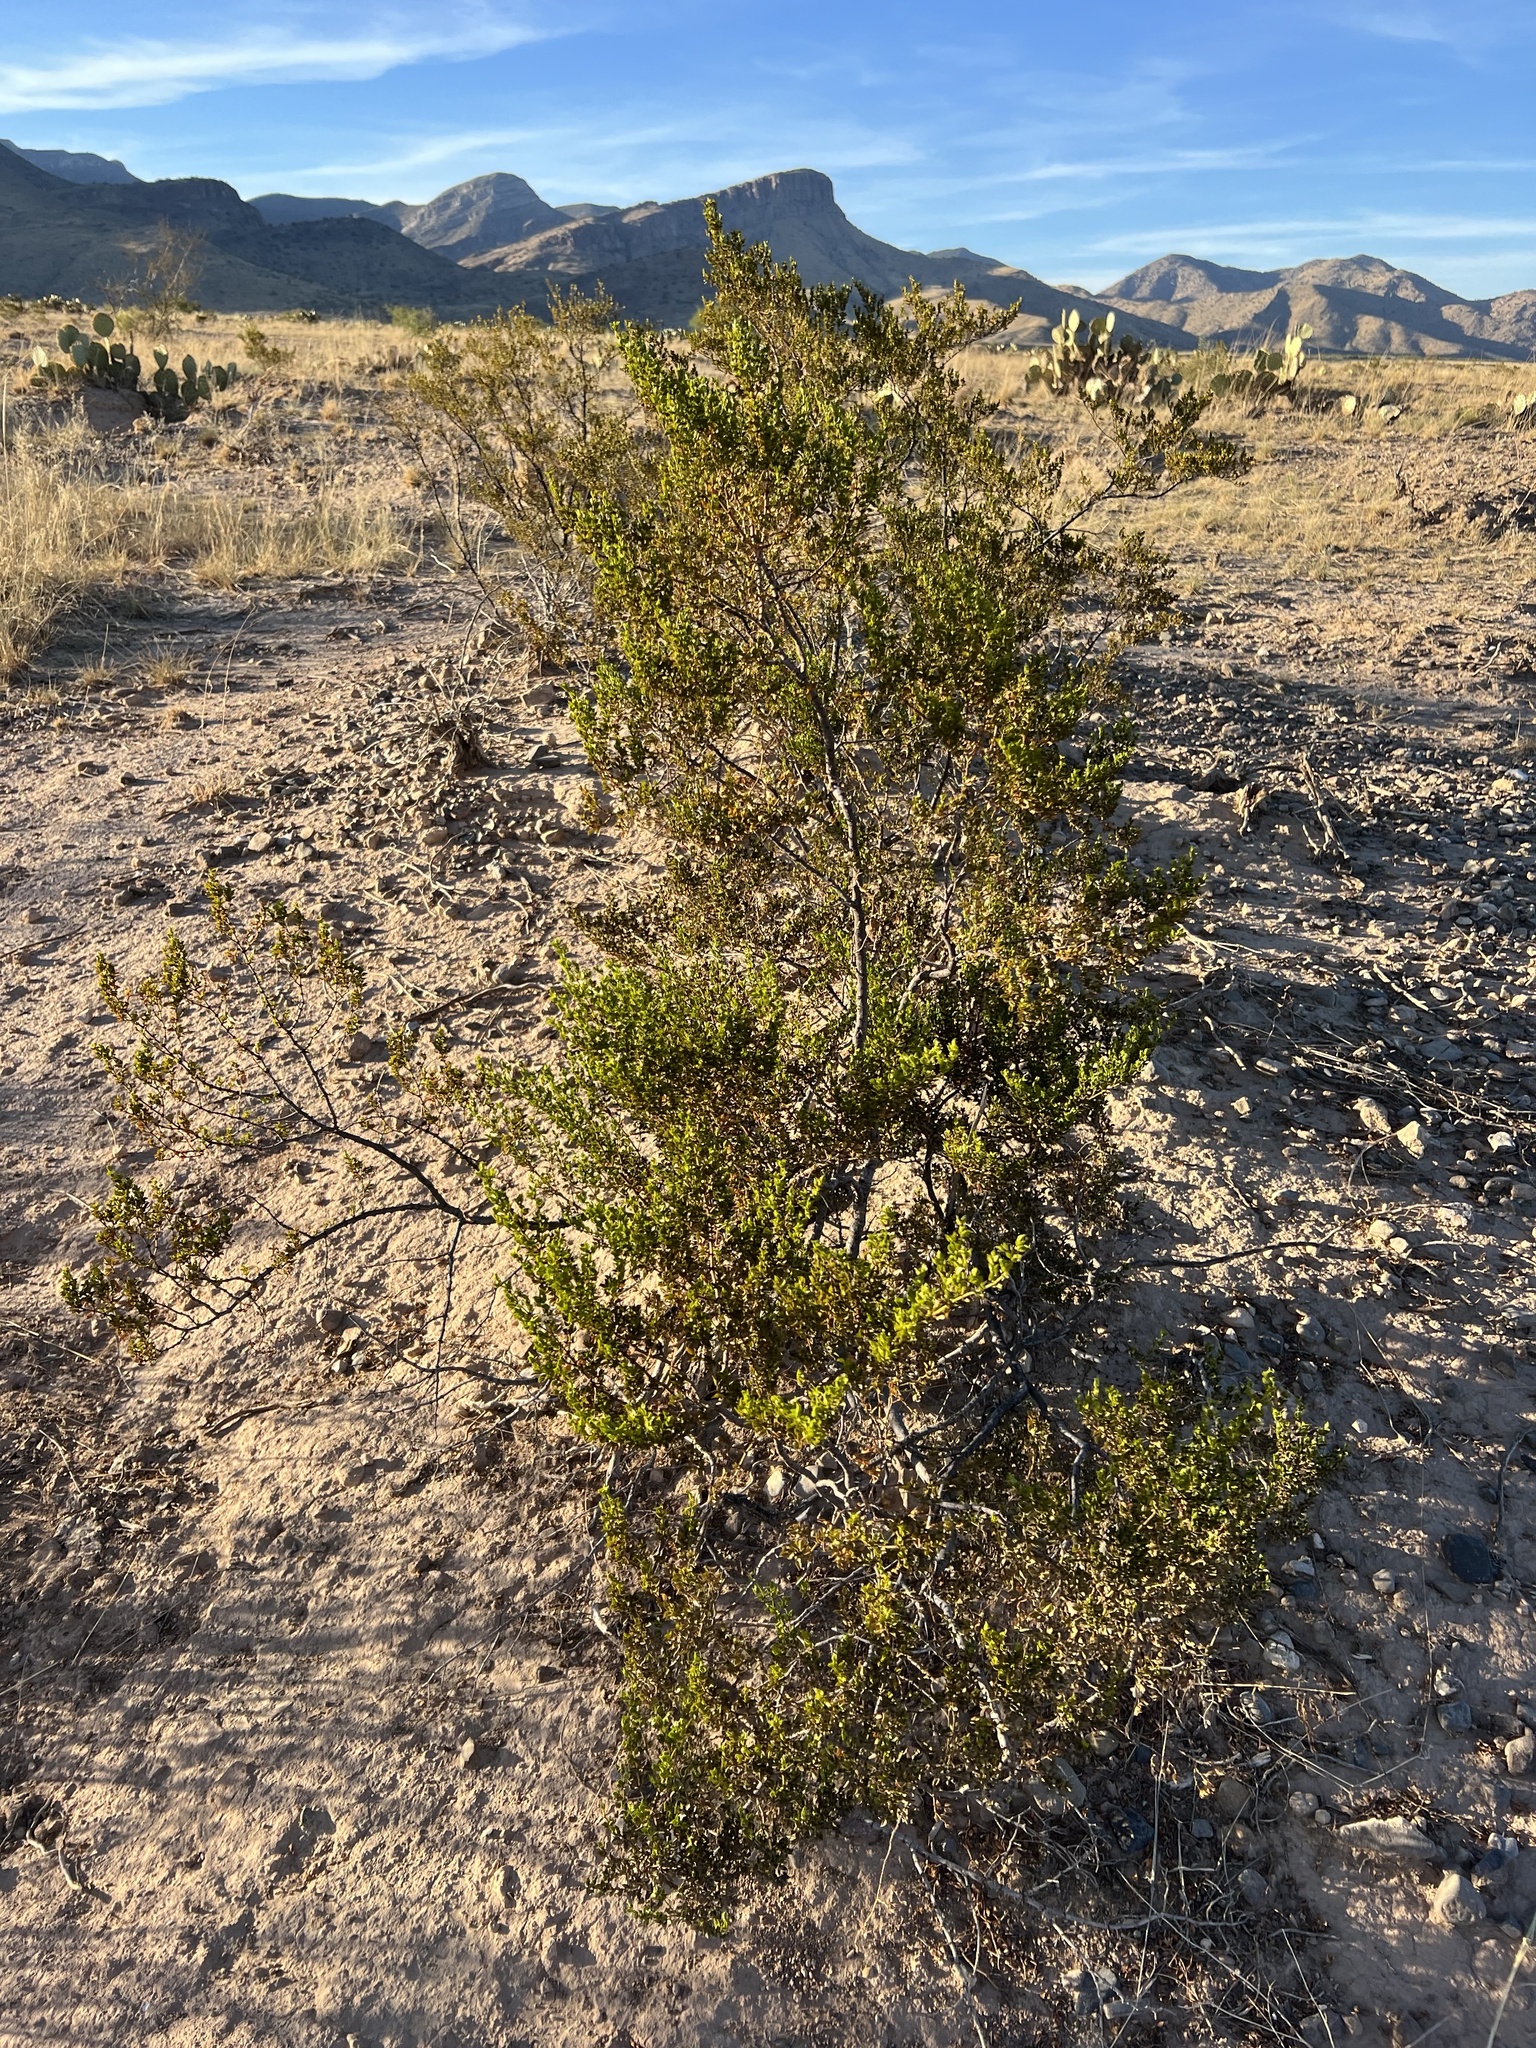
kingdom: Plantae
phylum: Tracheophyta
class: Magnoliopsida
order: Zygophyllales
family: Zygophyllaceae
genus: Larrea
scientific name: Larrea tridentata
